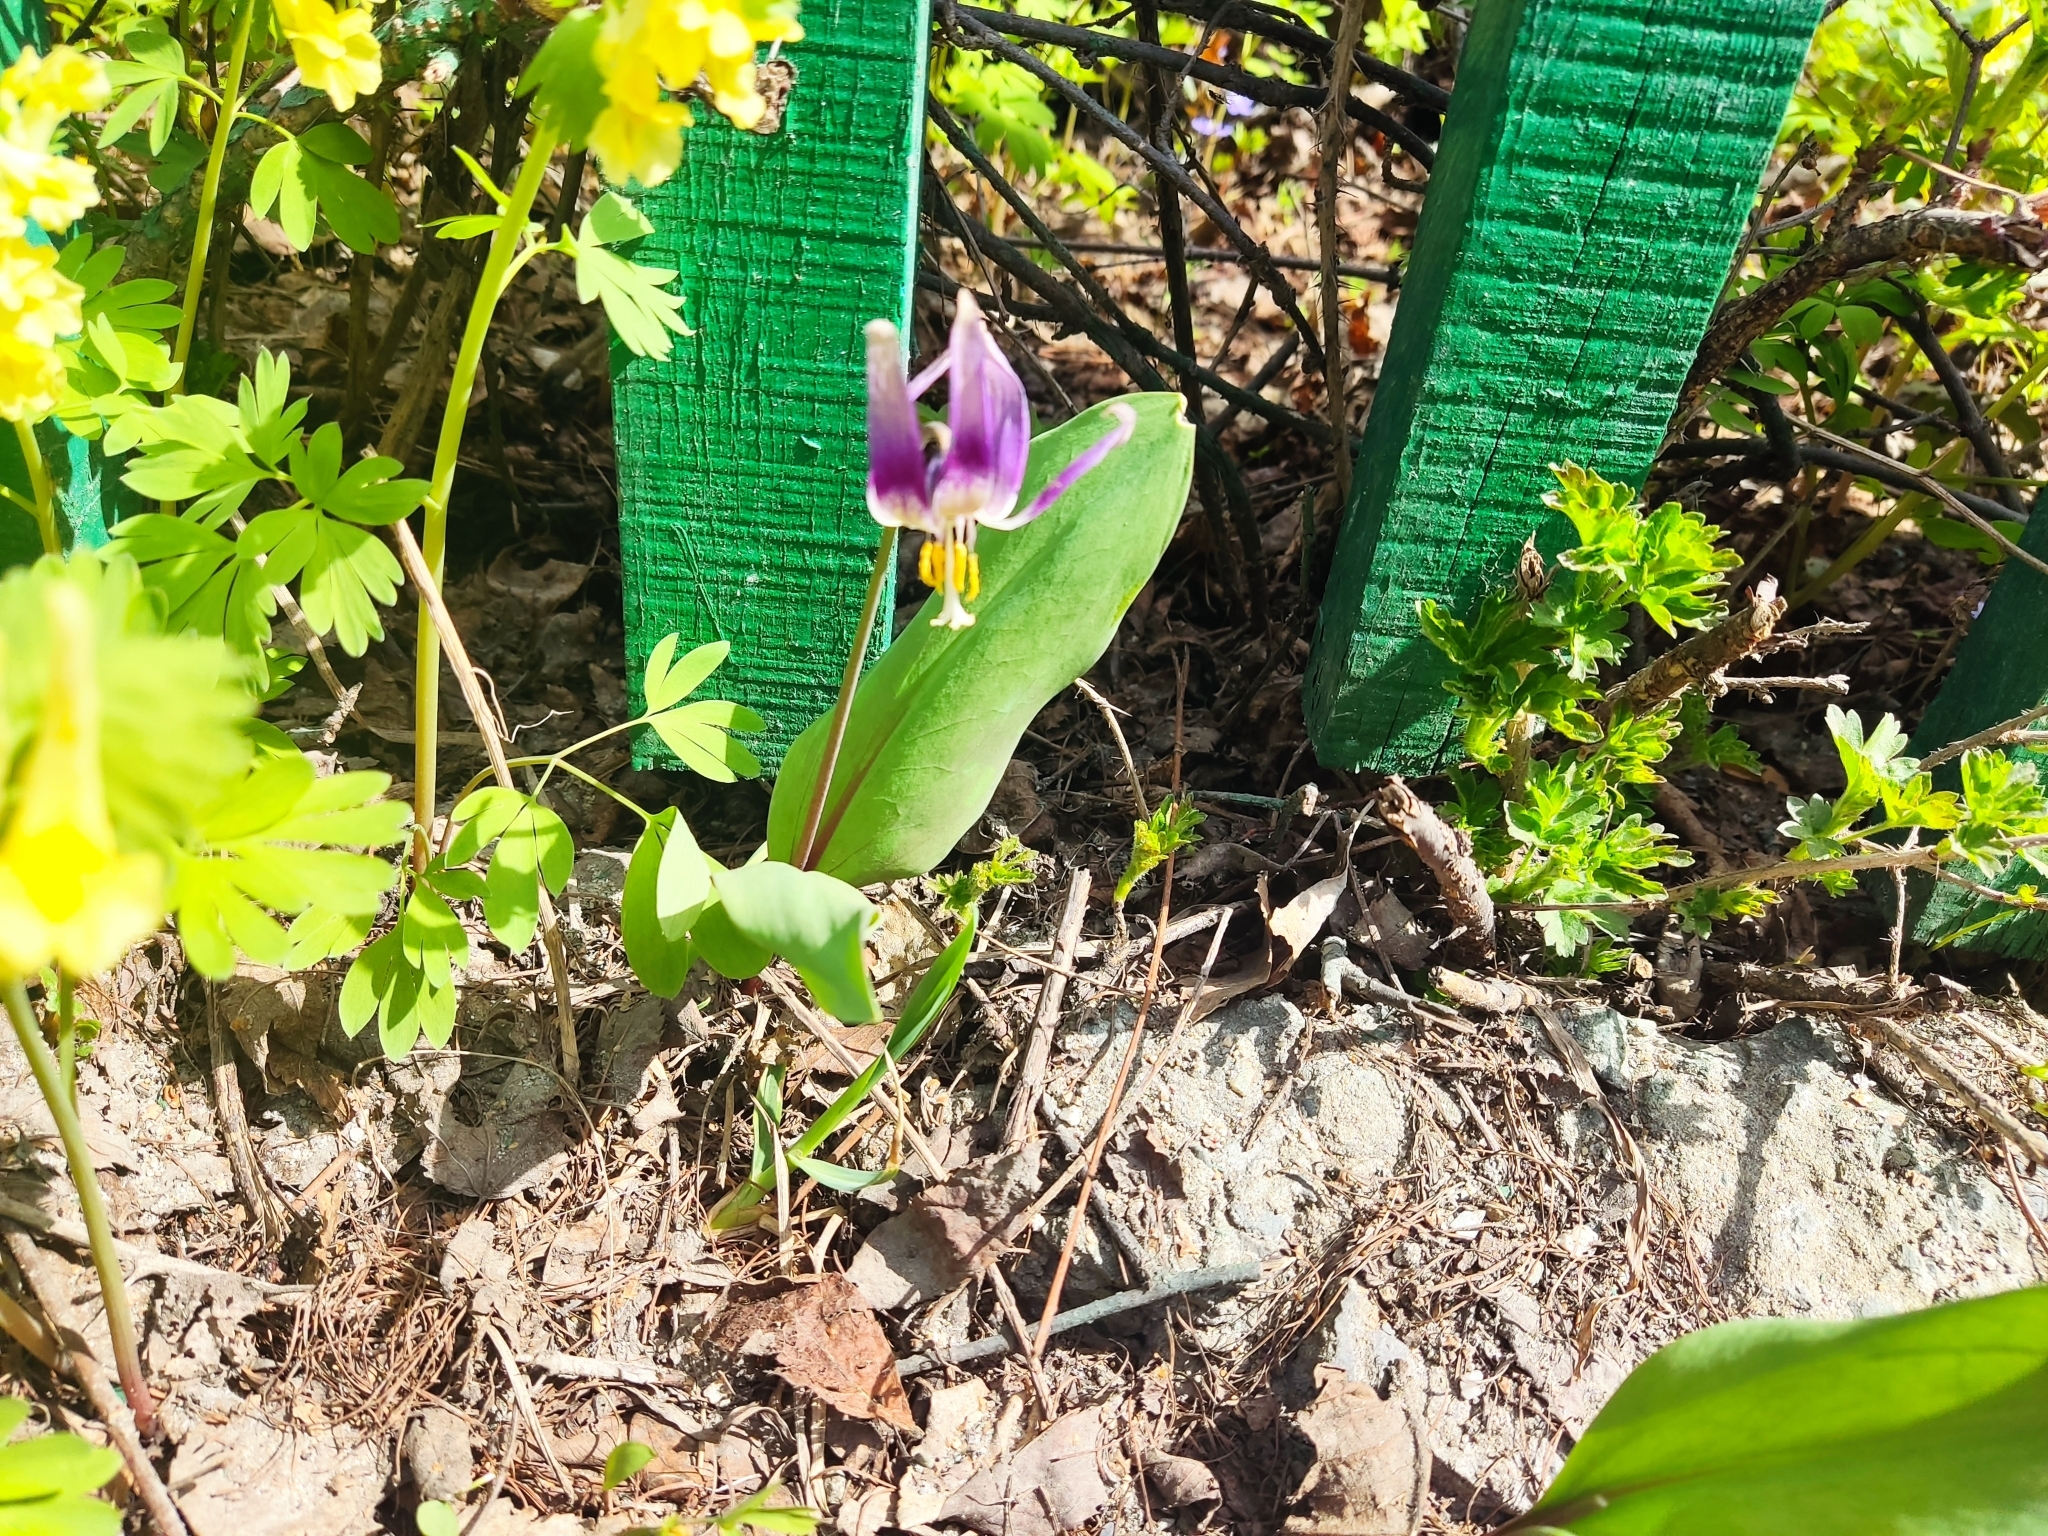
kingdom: Plantae
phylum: Tracheophyta
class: Liliopsida
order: Liliales
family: Liliaceae
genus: Erythronium
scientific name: Erythronium sibiricum
